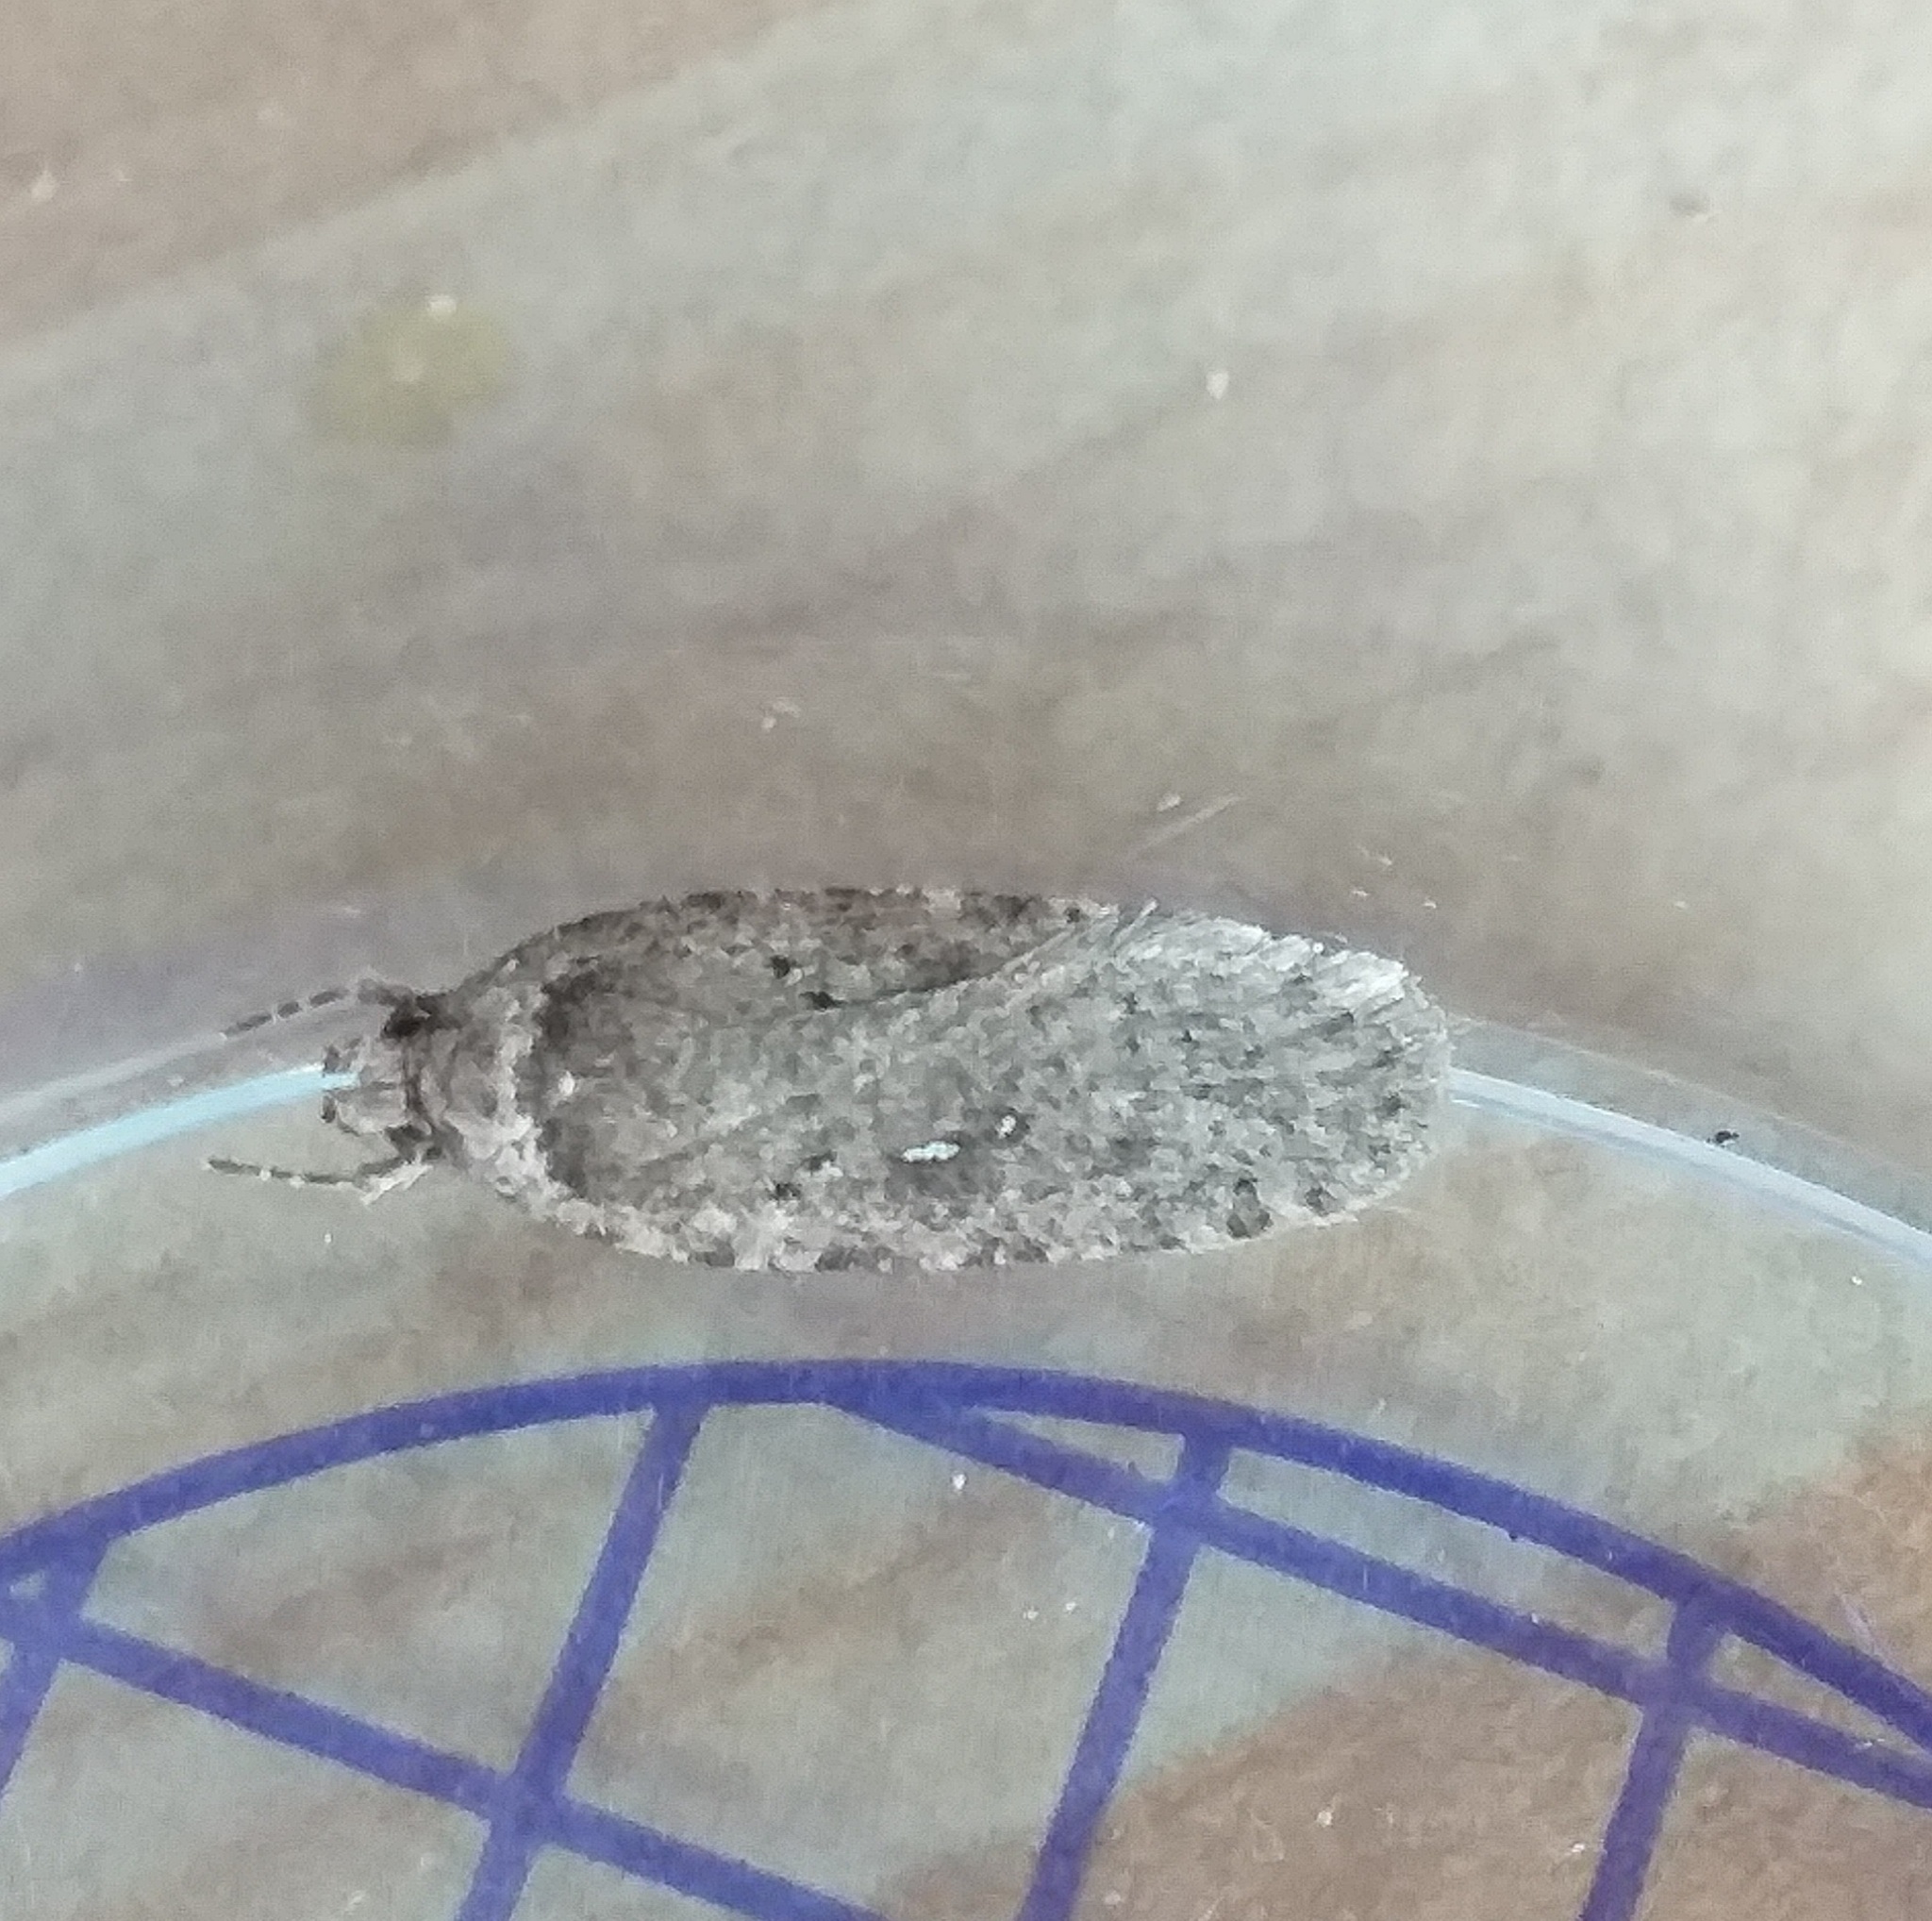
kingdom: Animalia
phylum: Arthropoda
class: Insecta
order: Lepidoptera
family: Depressariidae
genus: Agonopterix
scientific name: Agonopterix
